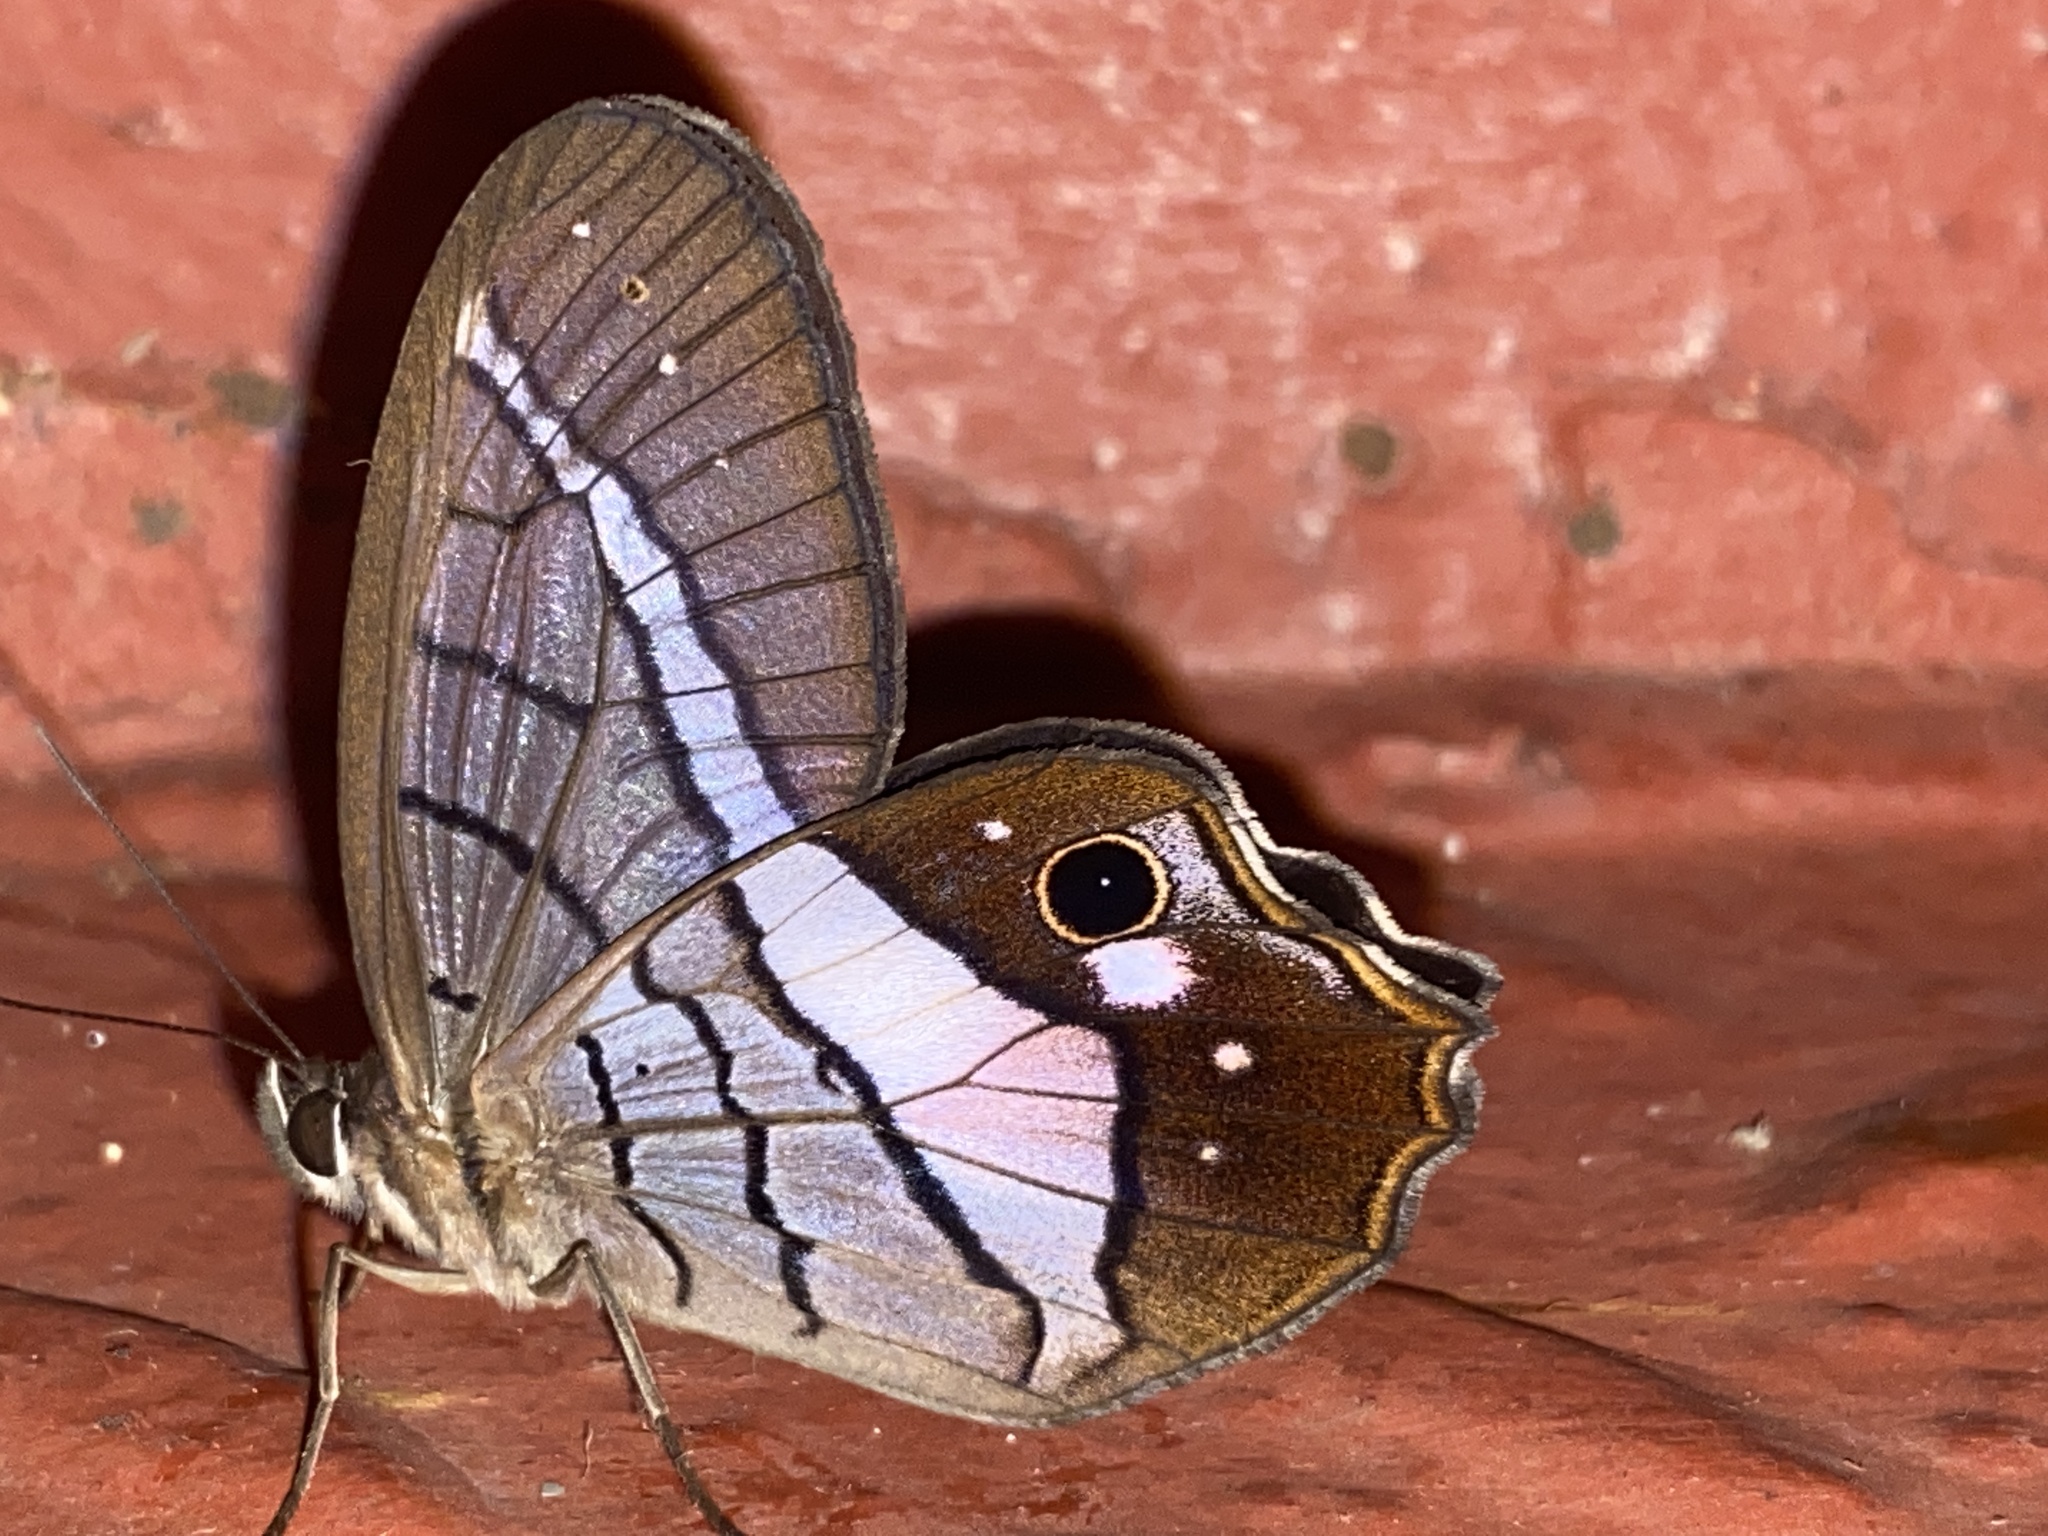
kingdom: Animalia
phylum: Arthropoda
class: Insecta
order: Lepidoptera
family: Nymphalidae
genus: Pierella
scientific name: Pierella helvina
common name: Red-washed satyr
